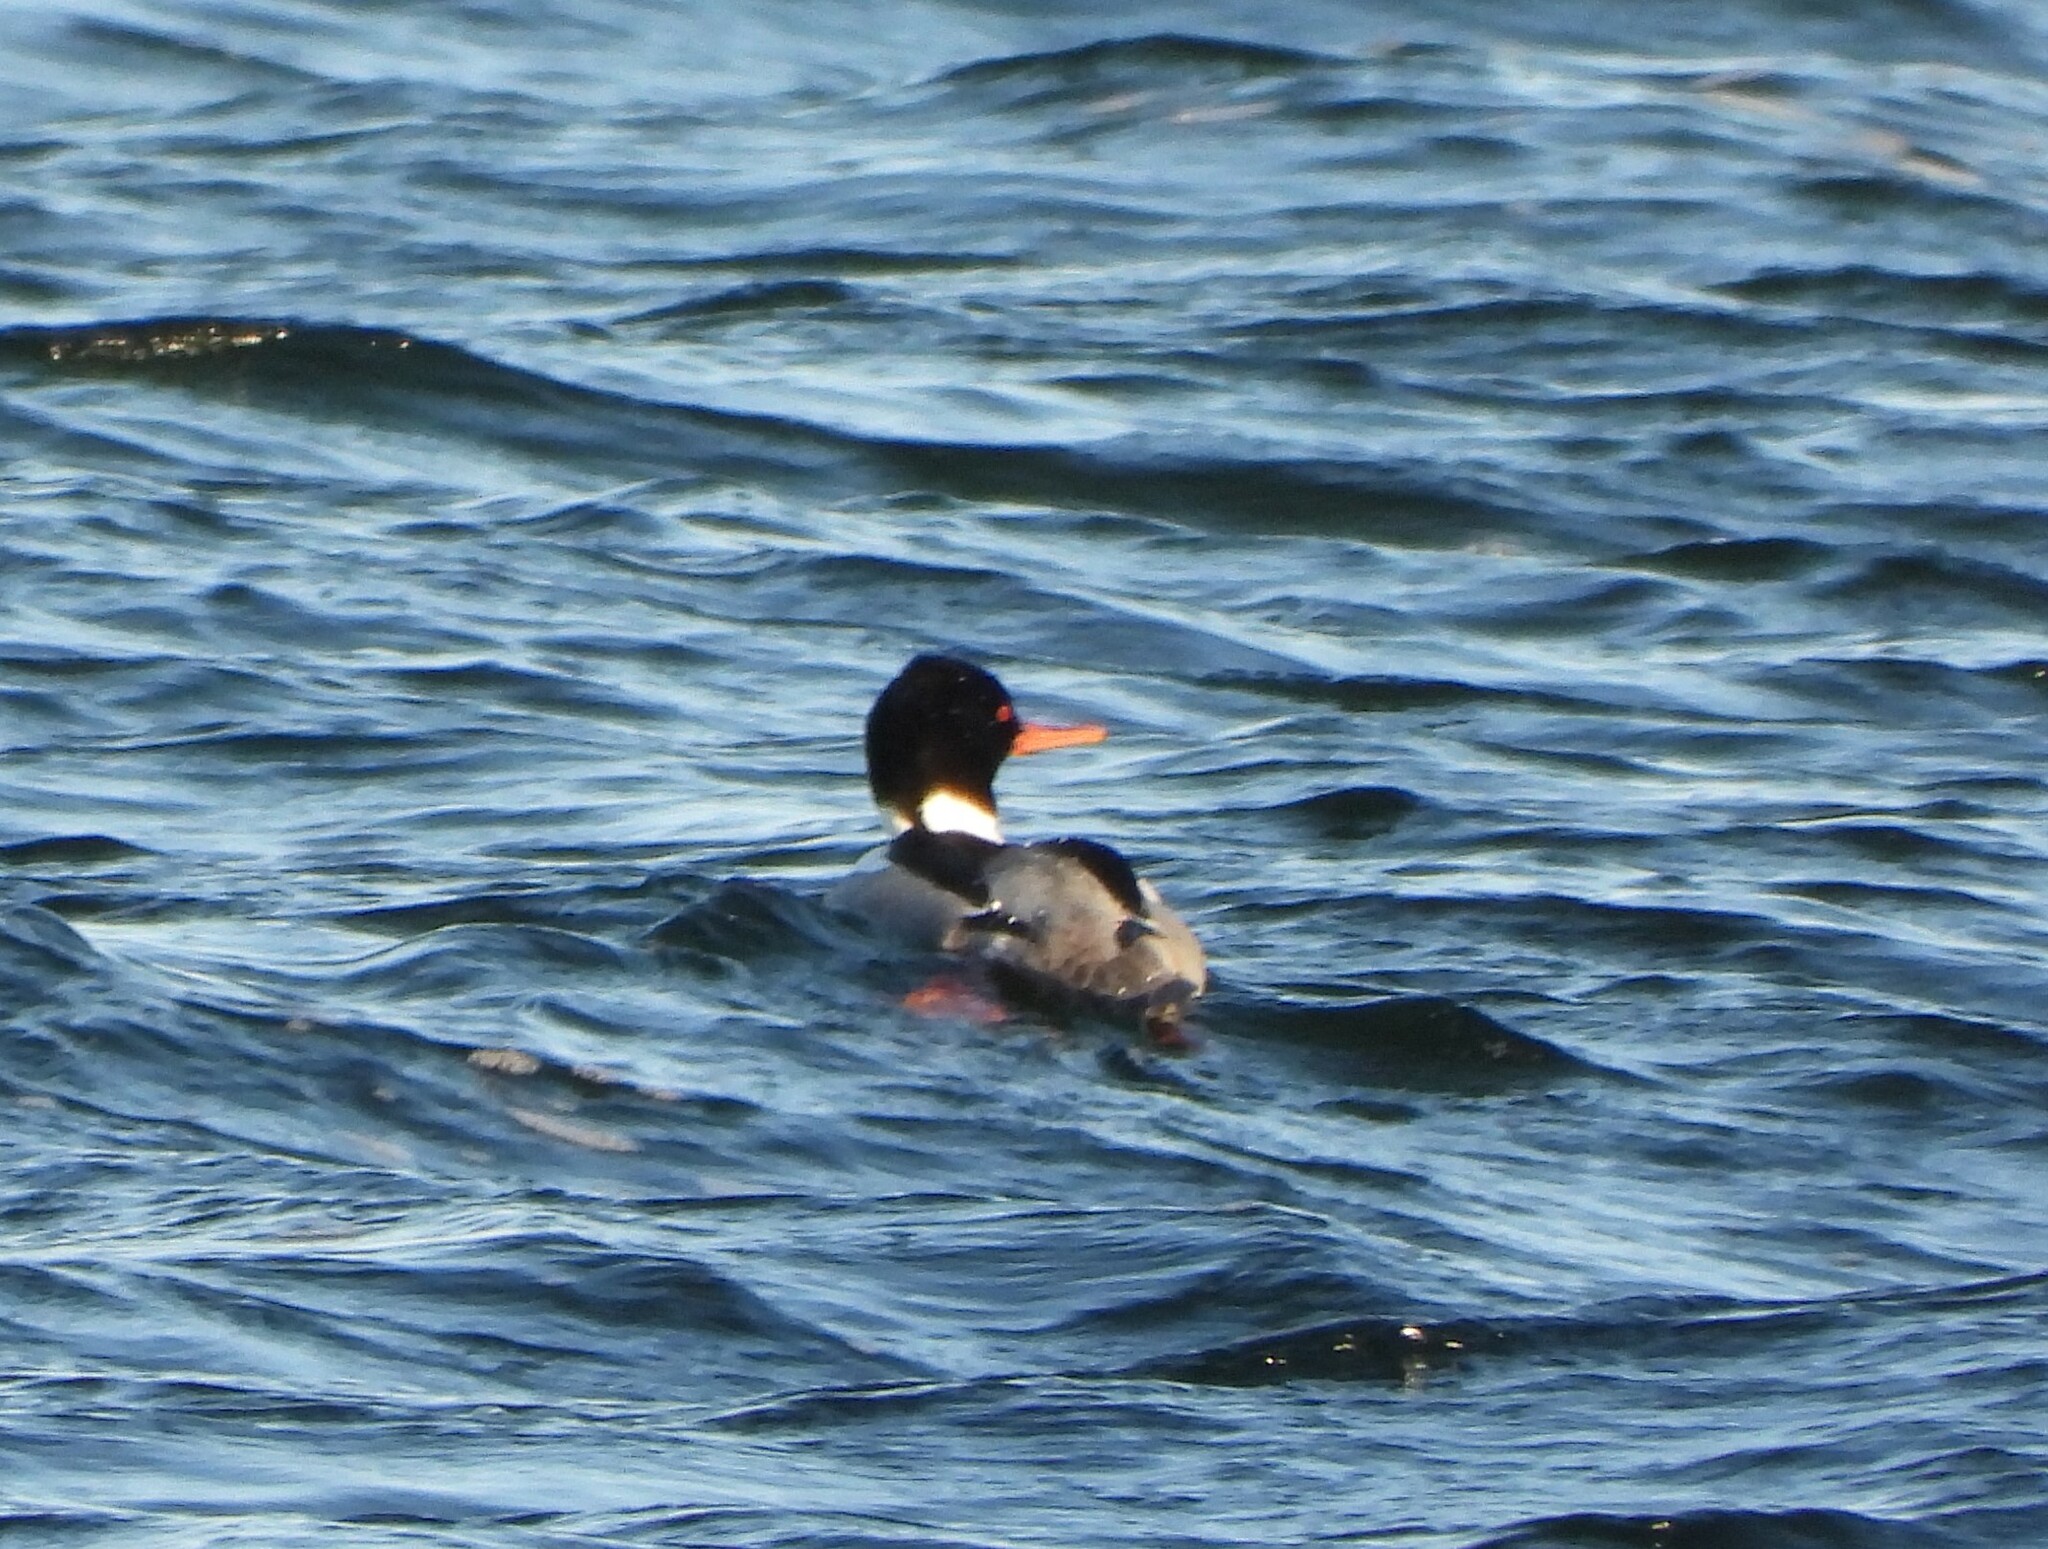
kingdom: Animalia
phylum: Chordata
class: Aves
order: Anseriformes
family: Anatidae
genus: Mergus
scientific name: Mergus serrator
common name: Red-breasted merganser
